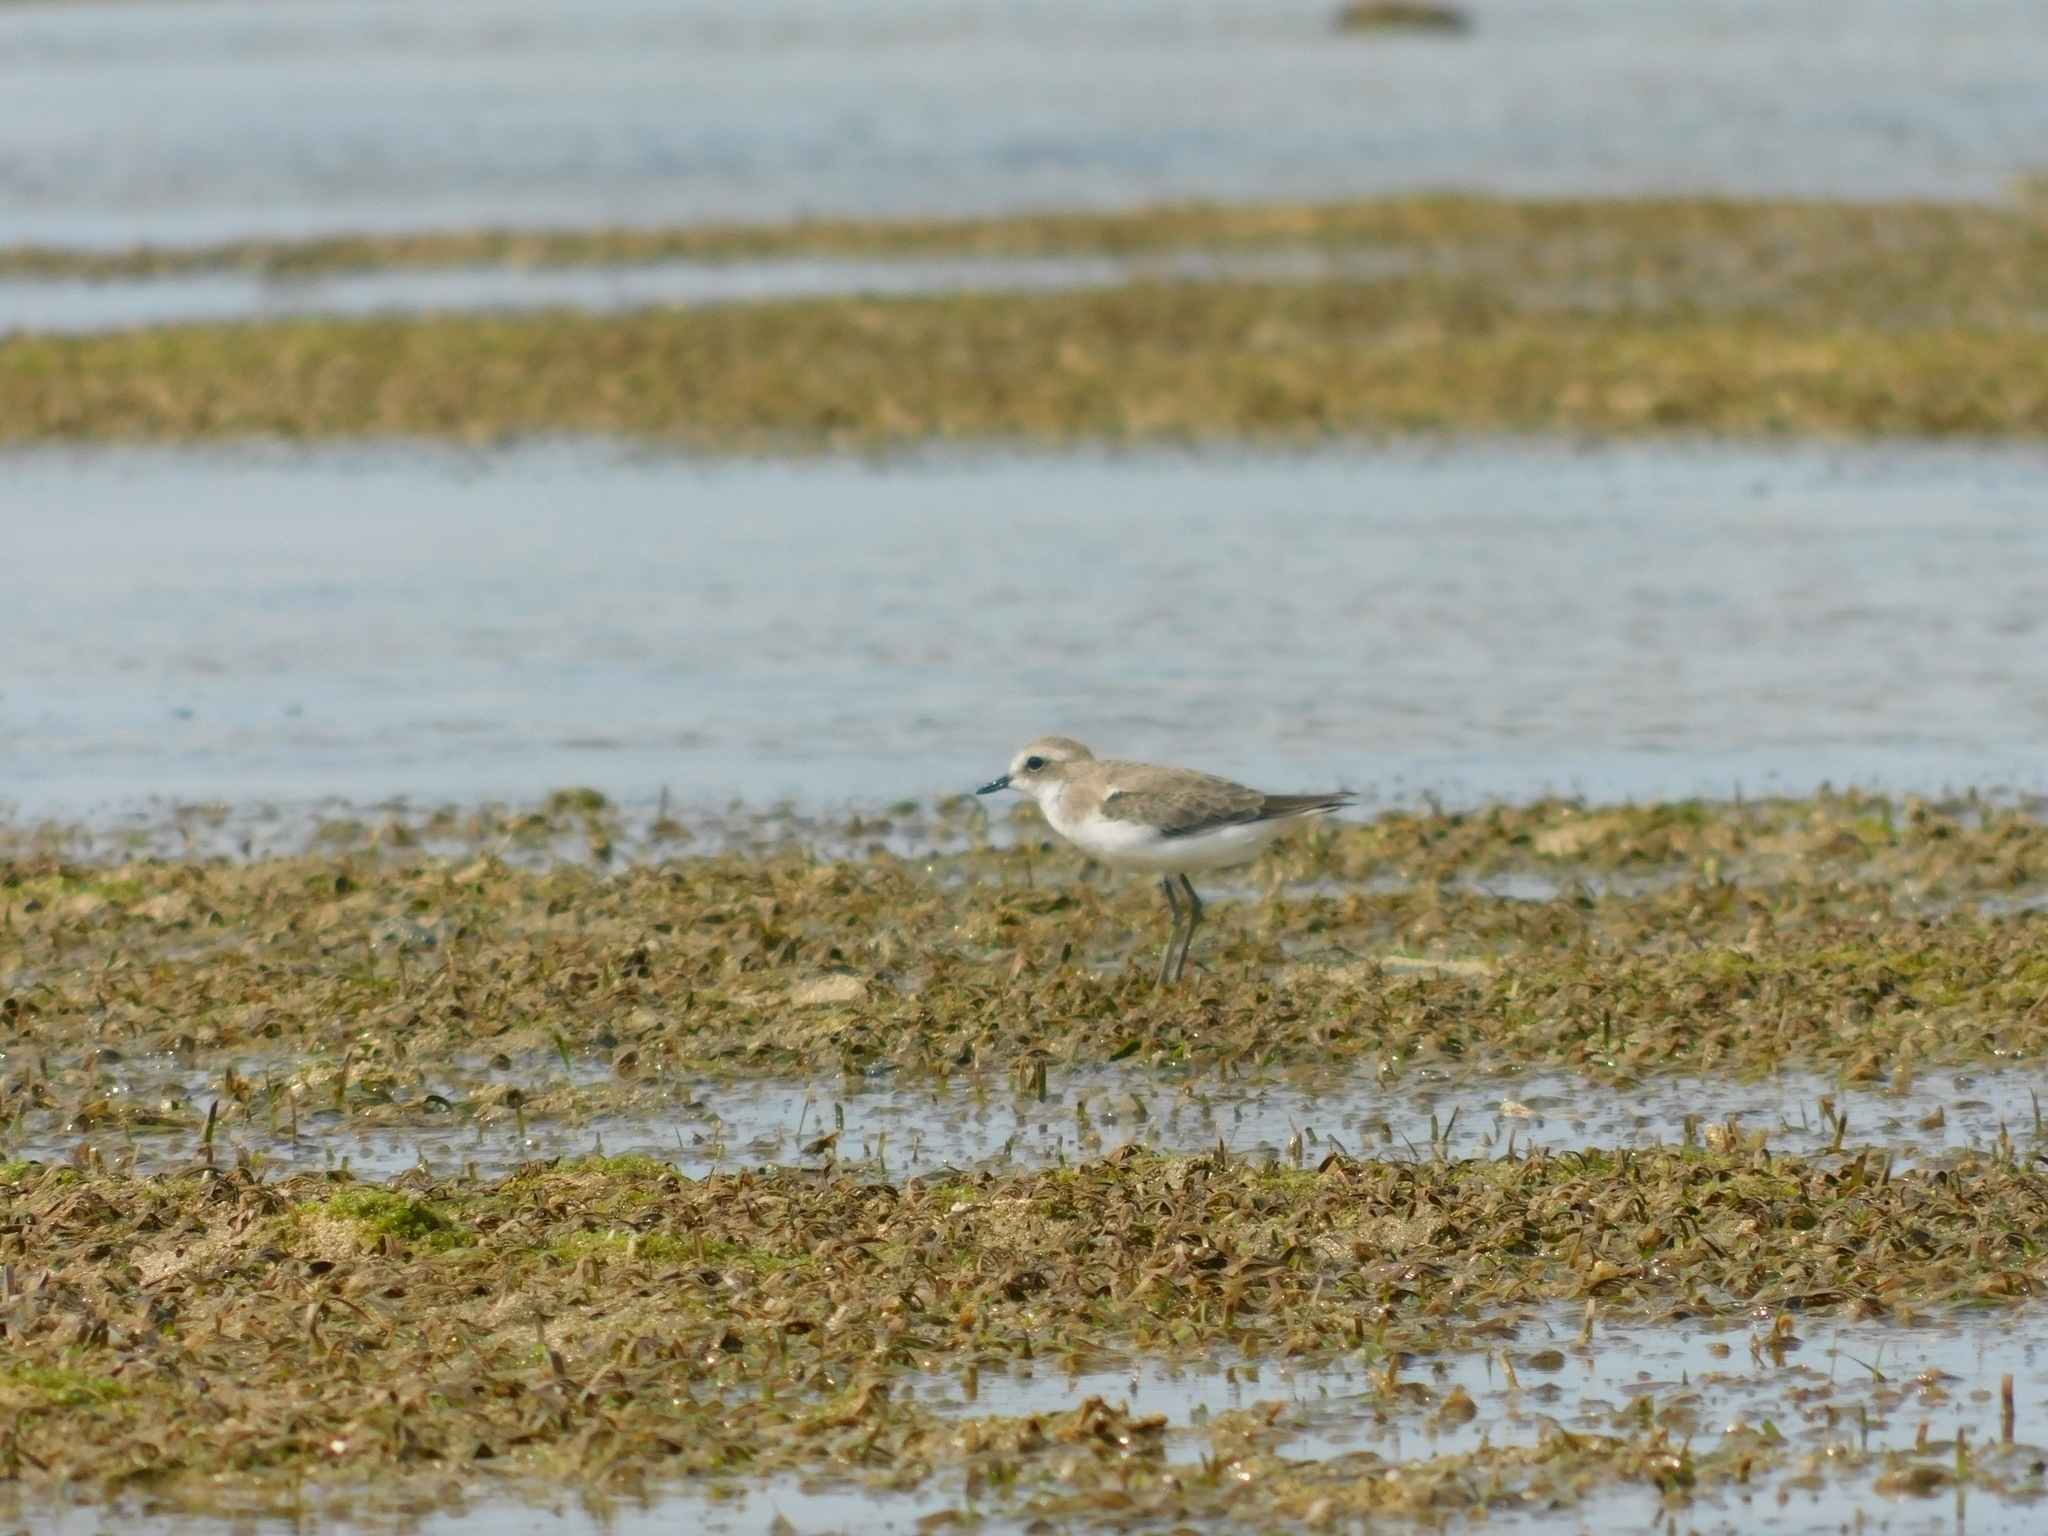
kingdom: Animalia
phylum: Chordata
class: Aves
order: Charadriiformes
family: Charadriidae
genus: Charadrius
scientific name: Charadrius leschenaultii
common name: Greater sand plover
